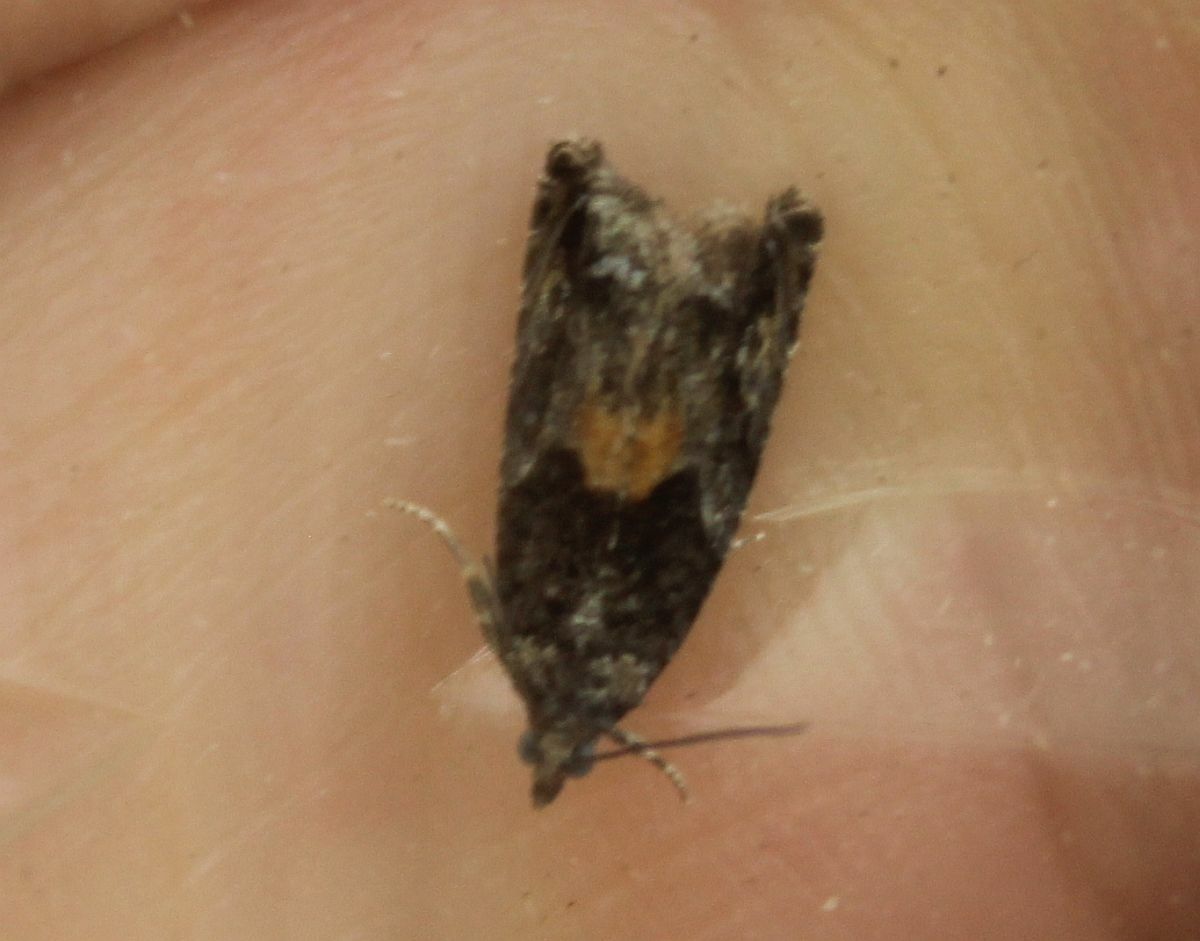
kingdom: Animalia
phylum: Arthropoda
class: Insecta
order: Lepidoptera
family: Tortricidae
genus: Epinotia
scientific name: Epinotia nisella
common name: Grey poplar bell
